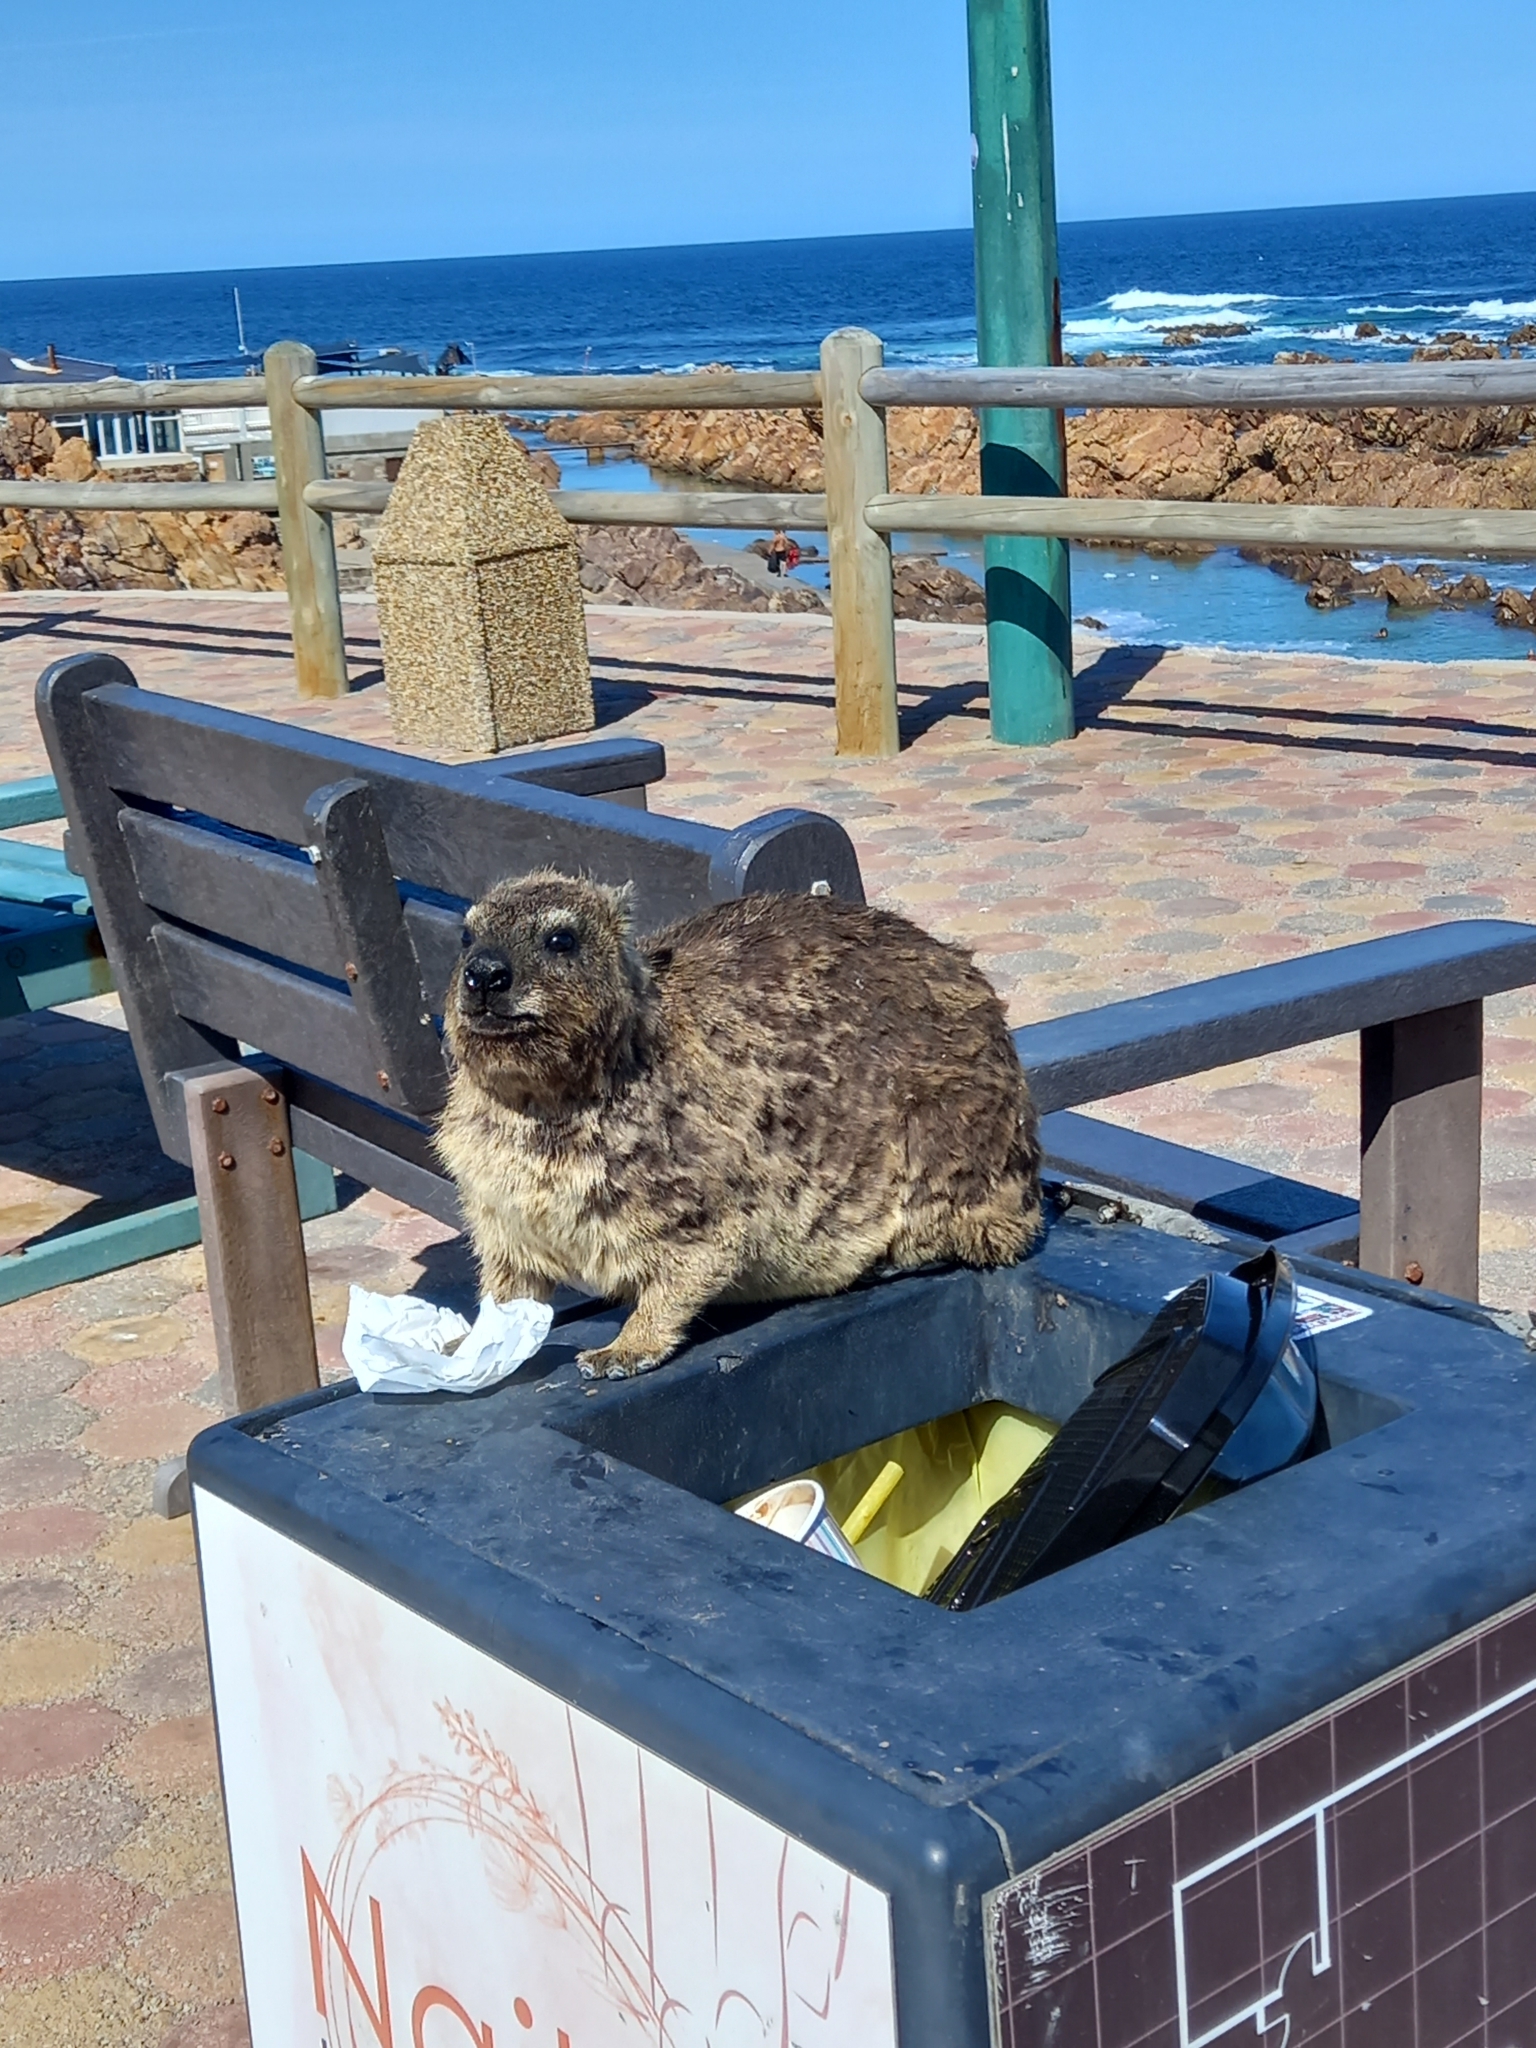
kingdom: Animalia
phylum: Chordata
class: Mammalia
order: Hyracoidea
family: Procaviidae
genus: Procavia
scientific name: Procavia capensis
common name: Rock hyrax
